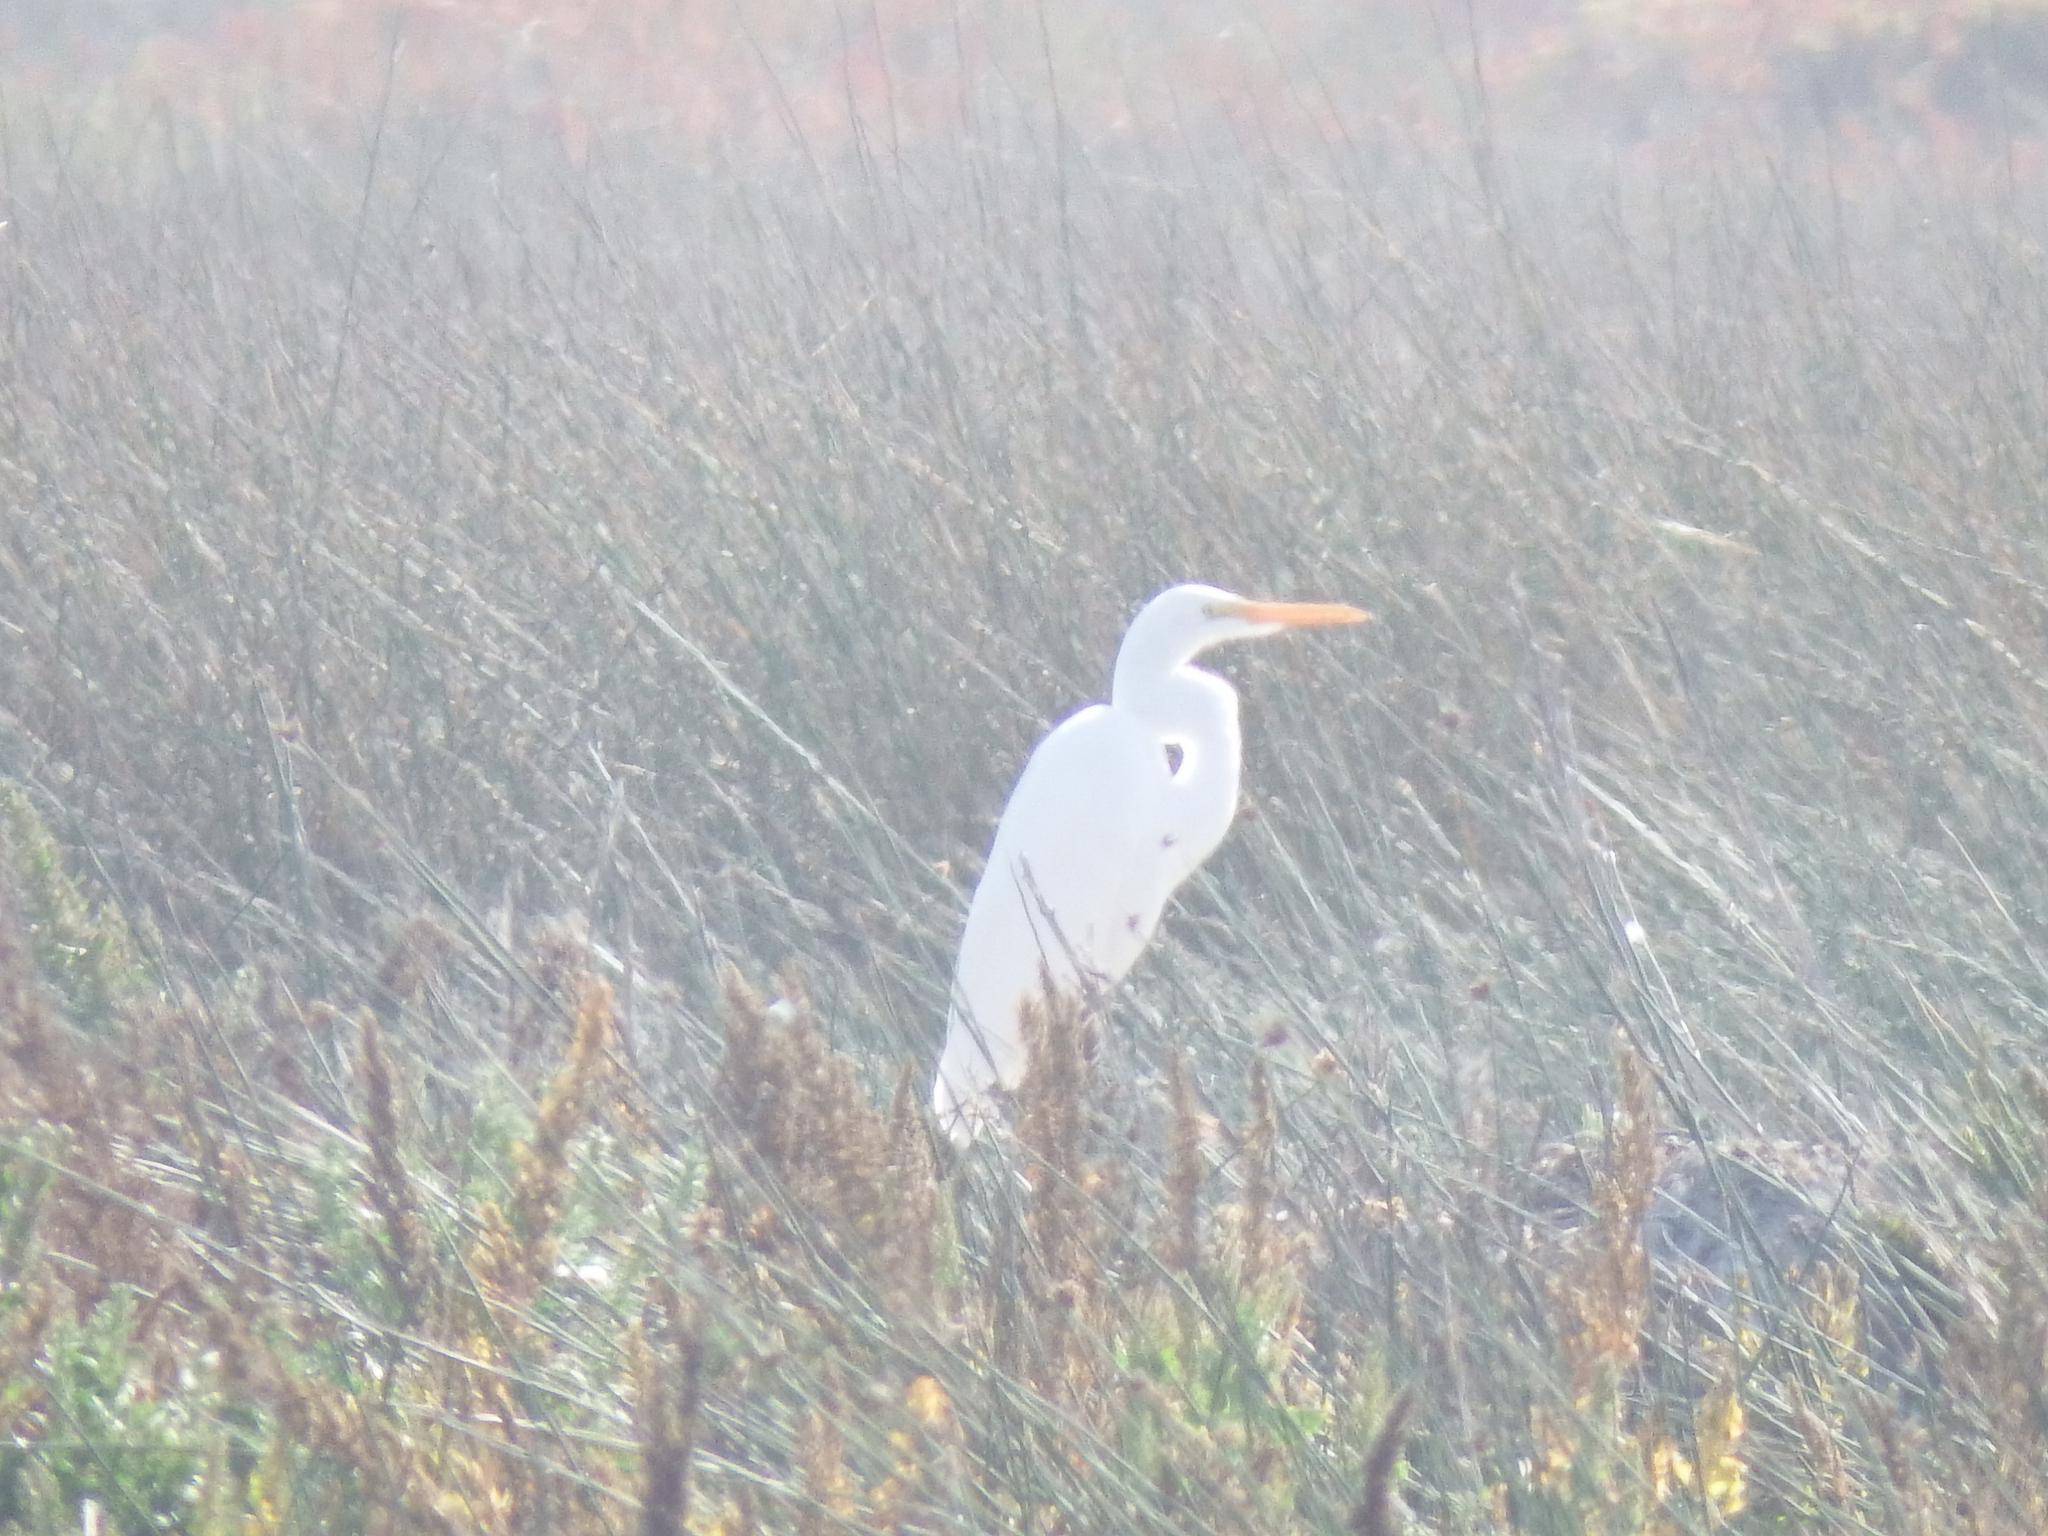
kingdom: Animalia
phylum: Chordata
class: Aves
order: Pelecaniformes
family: Ardeidae
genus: Ardea
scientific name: Ardea alba
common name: Great egret
